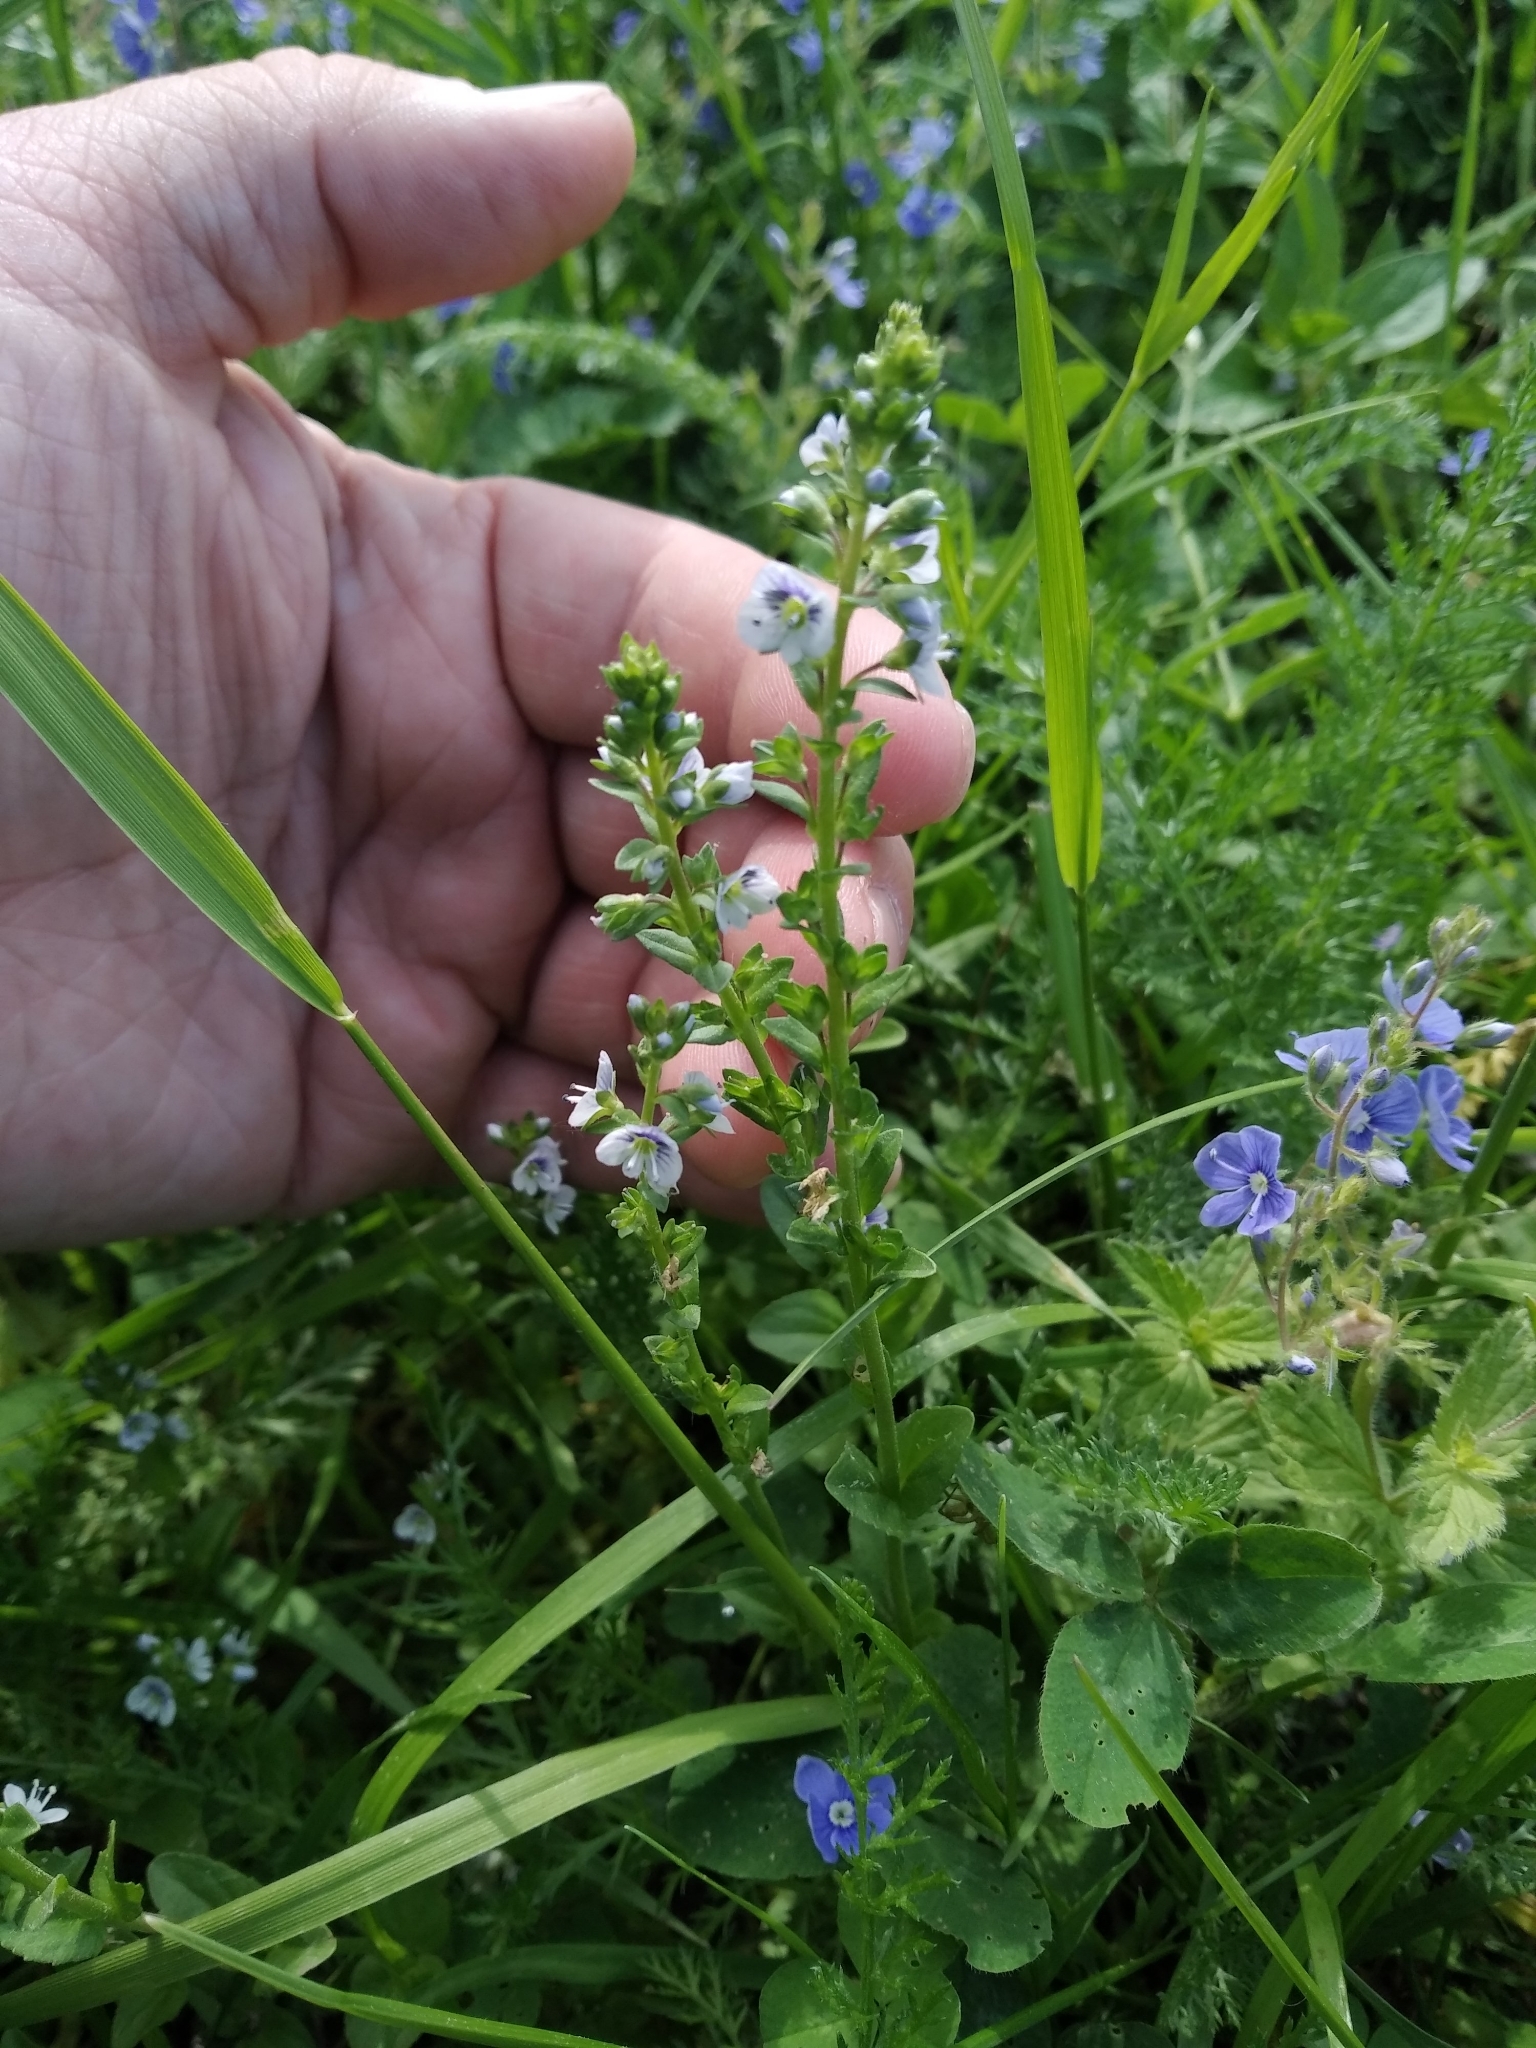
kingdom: Plantae
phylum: Tracheophyta
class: Magnoliopsida
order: Lamiales
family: Plantaginaceae
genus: Veronica
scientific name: Veronica serpyllifolia
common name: Thyme-leaved speedwell
